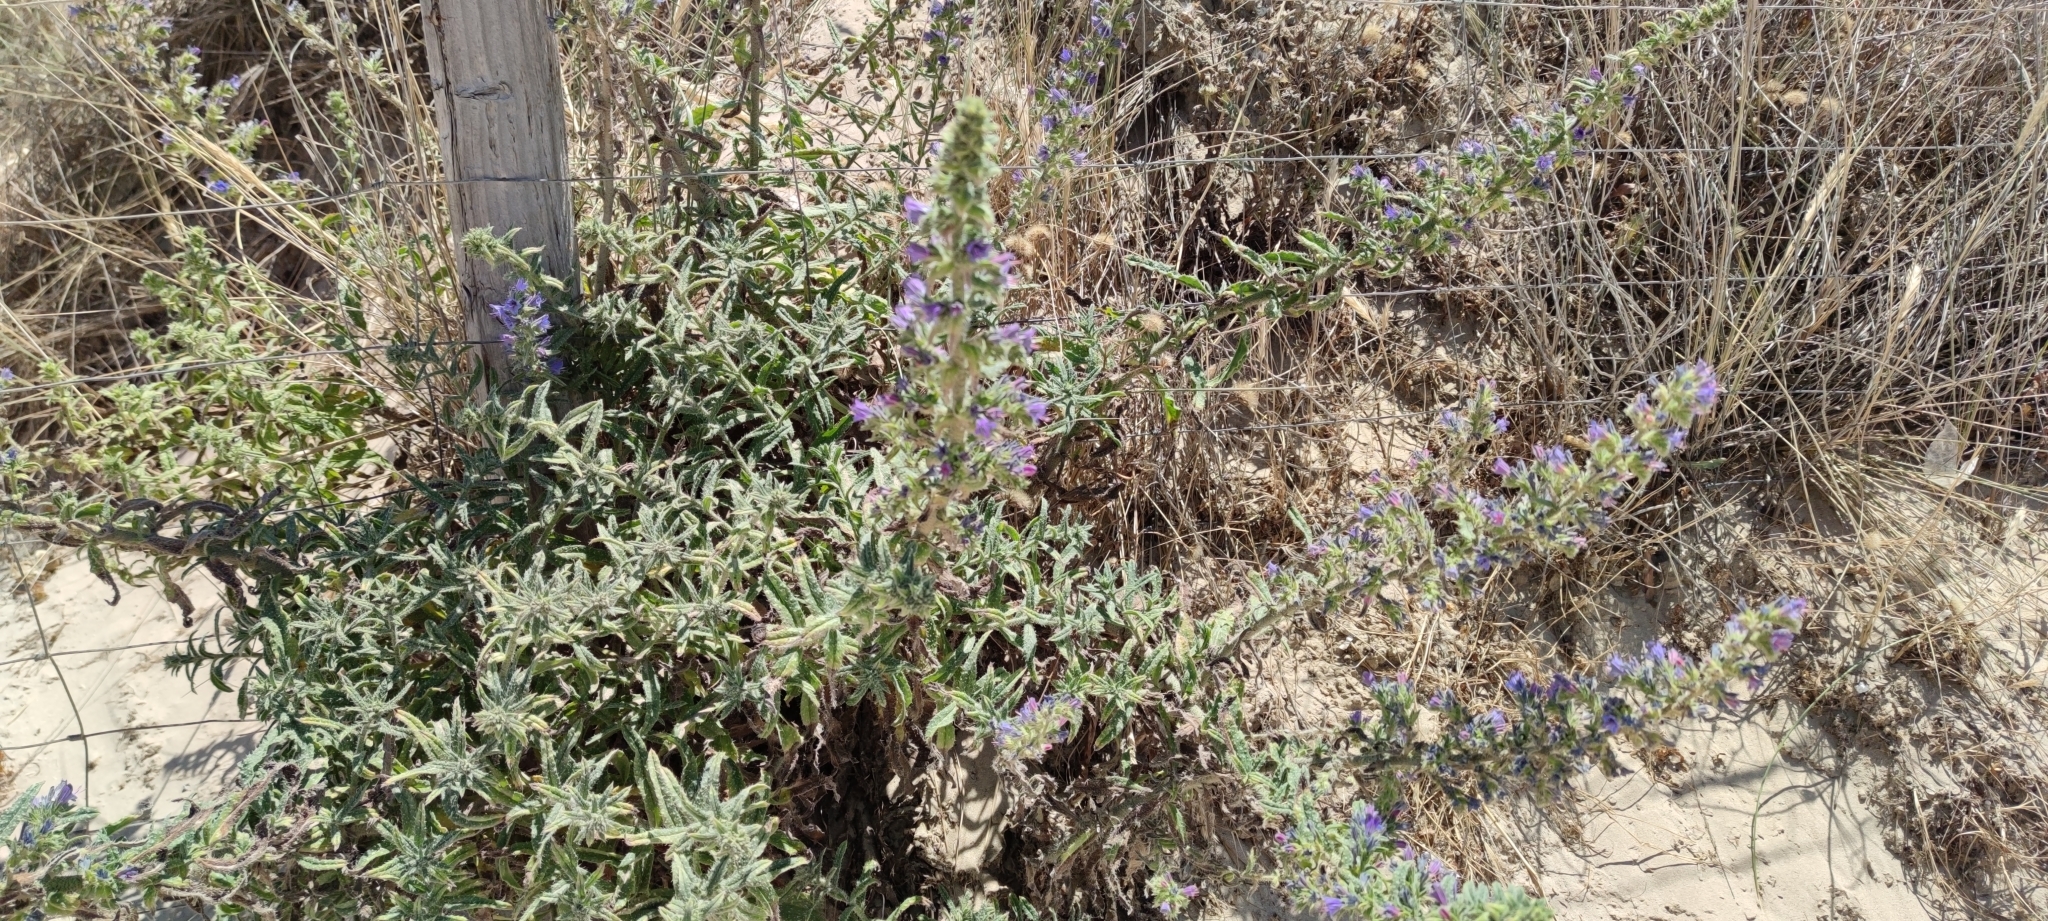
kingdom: Plantae
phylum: Tracheophyta
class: Magnoliopsida
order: Boraginales
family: Boraginaceae
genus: Echium
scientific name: Echium gaditanum
